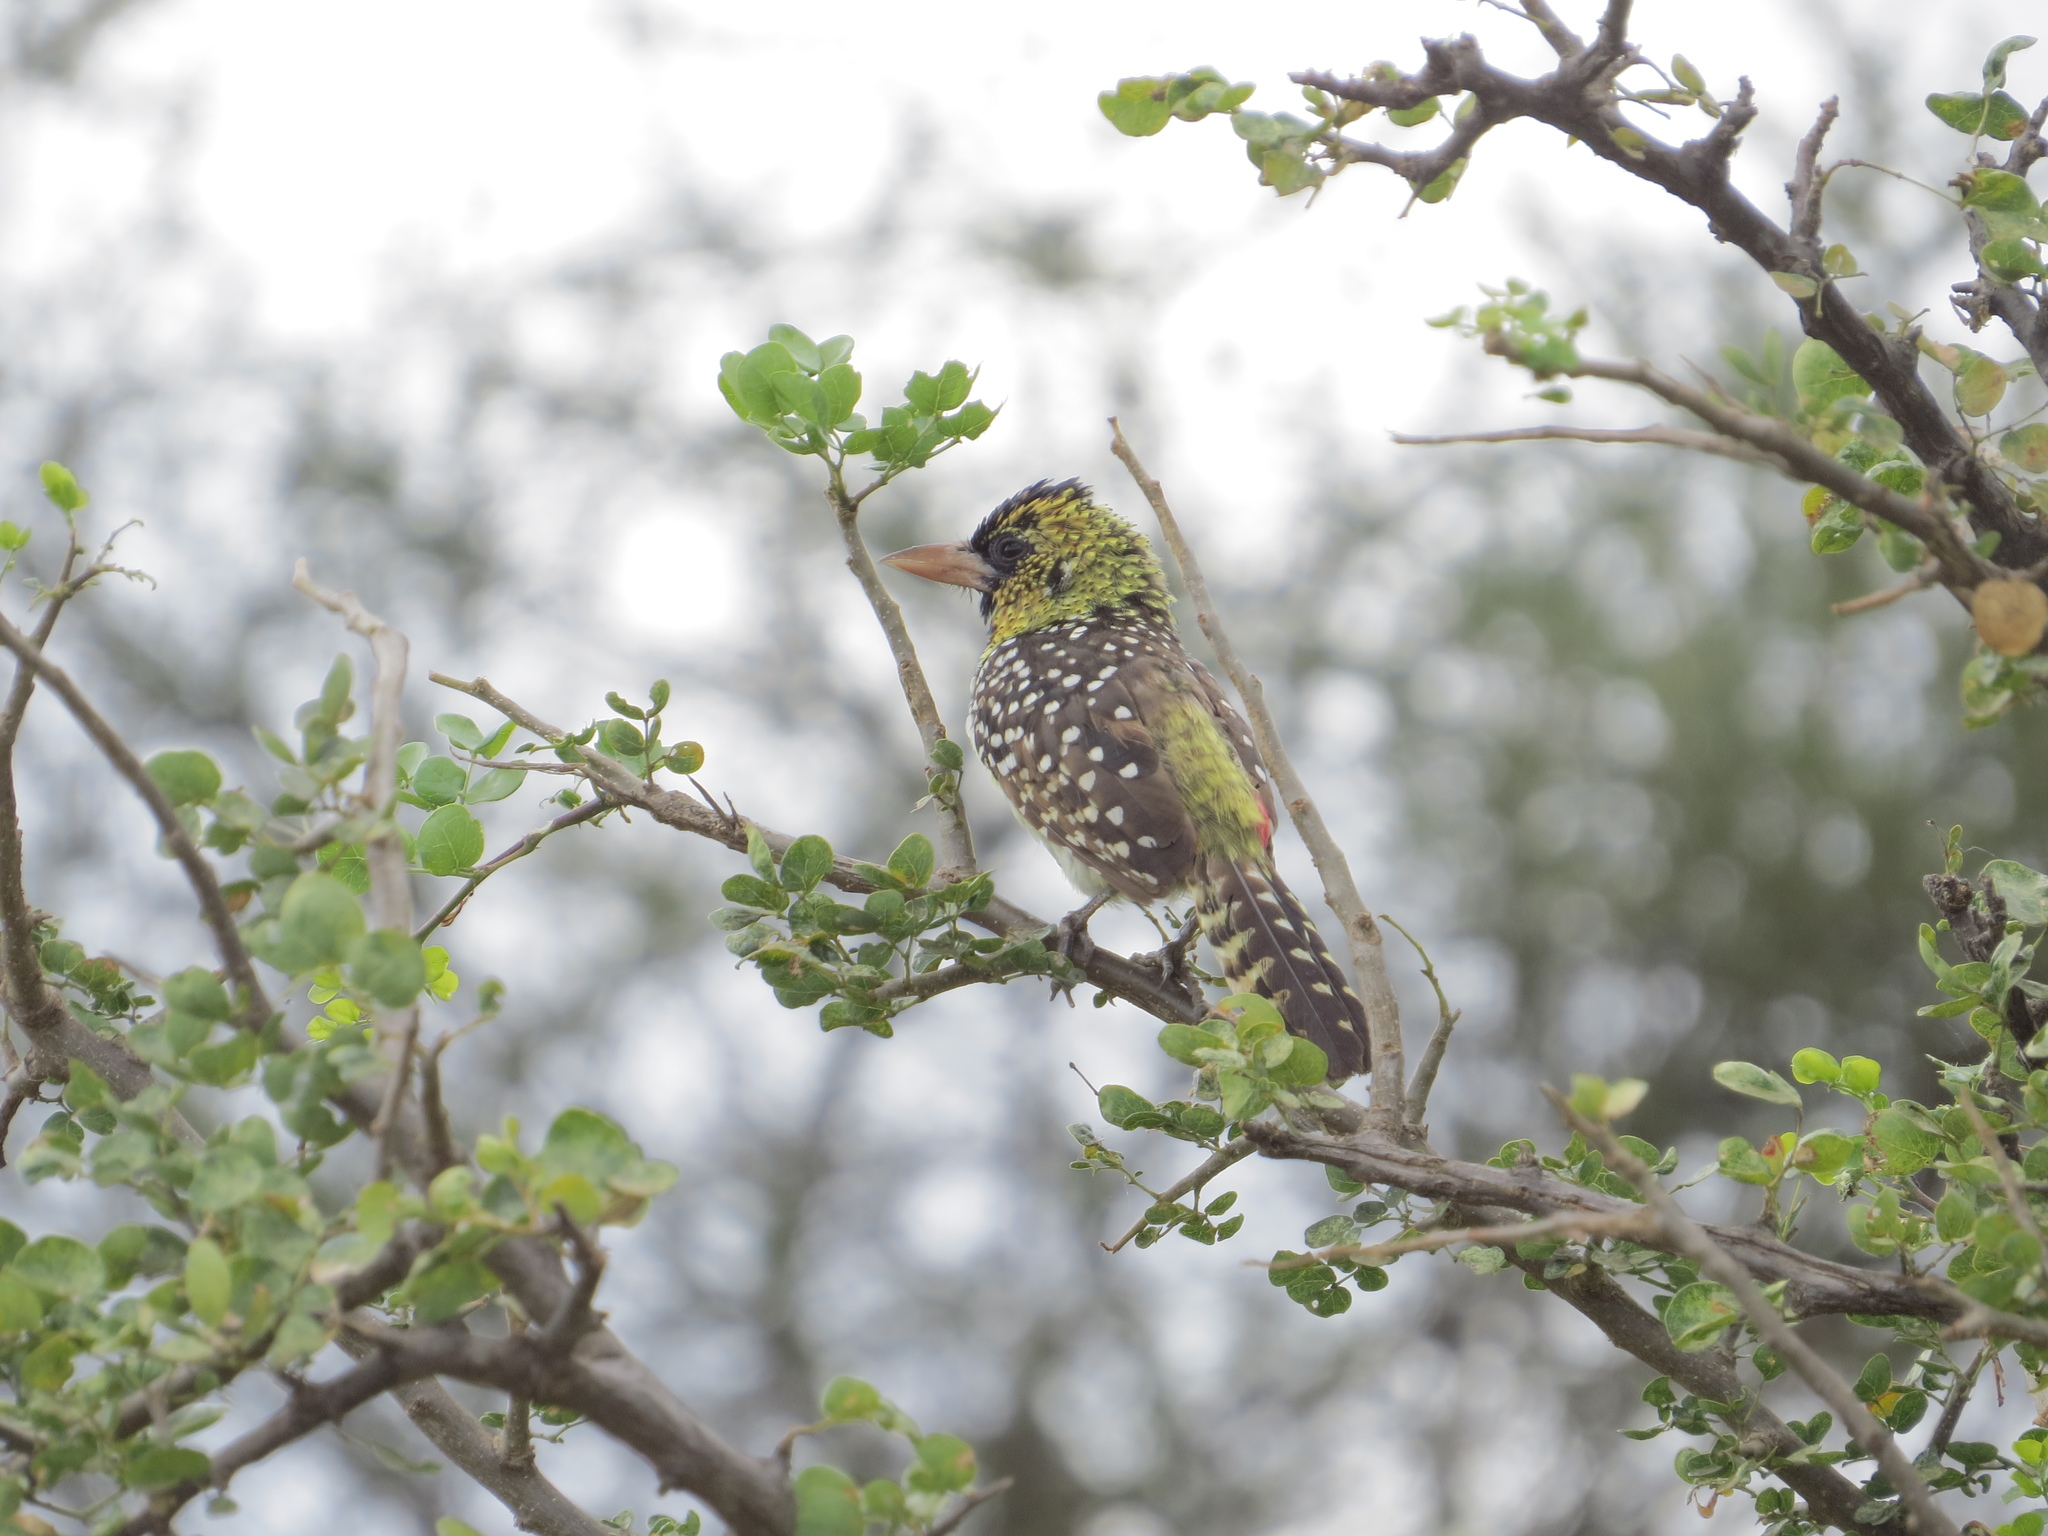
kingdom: Animalia
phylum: Chordata
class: Aves
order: Piciformes
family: Lybiidae
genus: Trachyphonus
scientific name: Trachyphonus darnaudii
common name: D'arnaud's barbet
